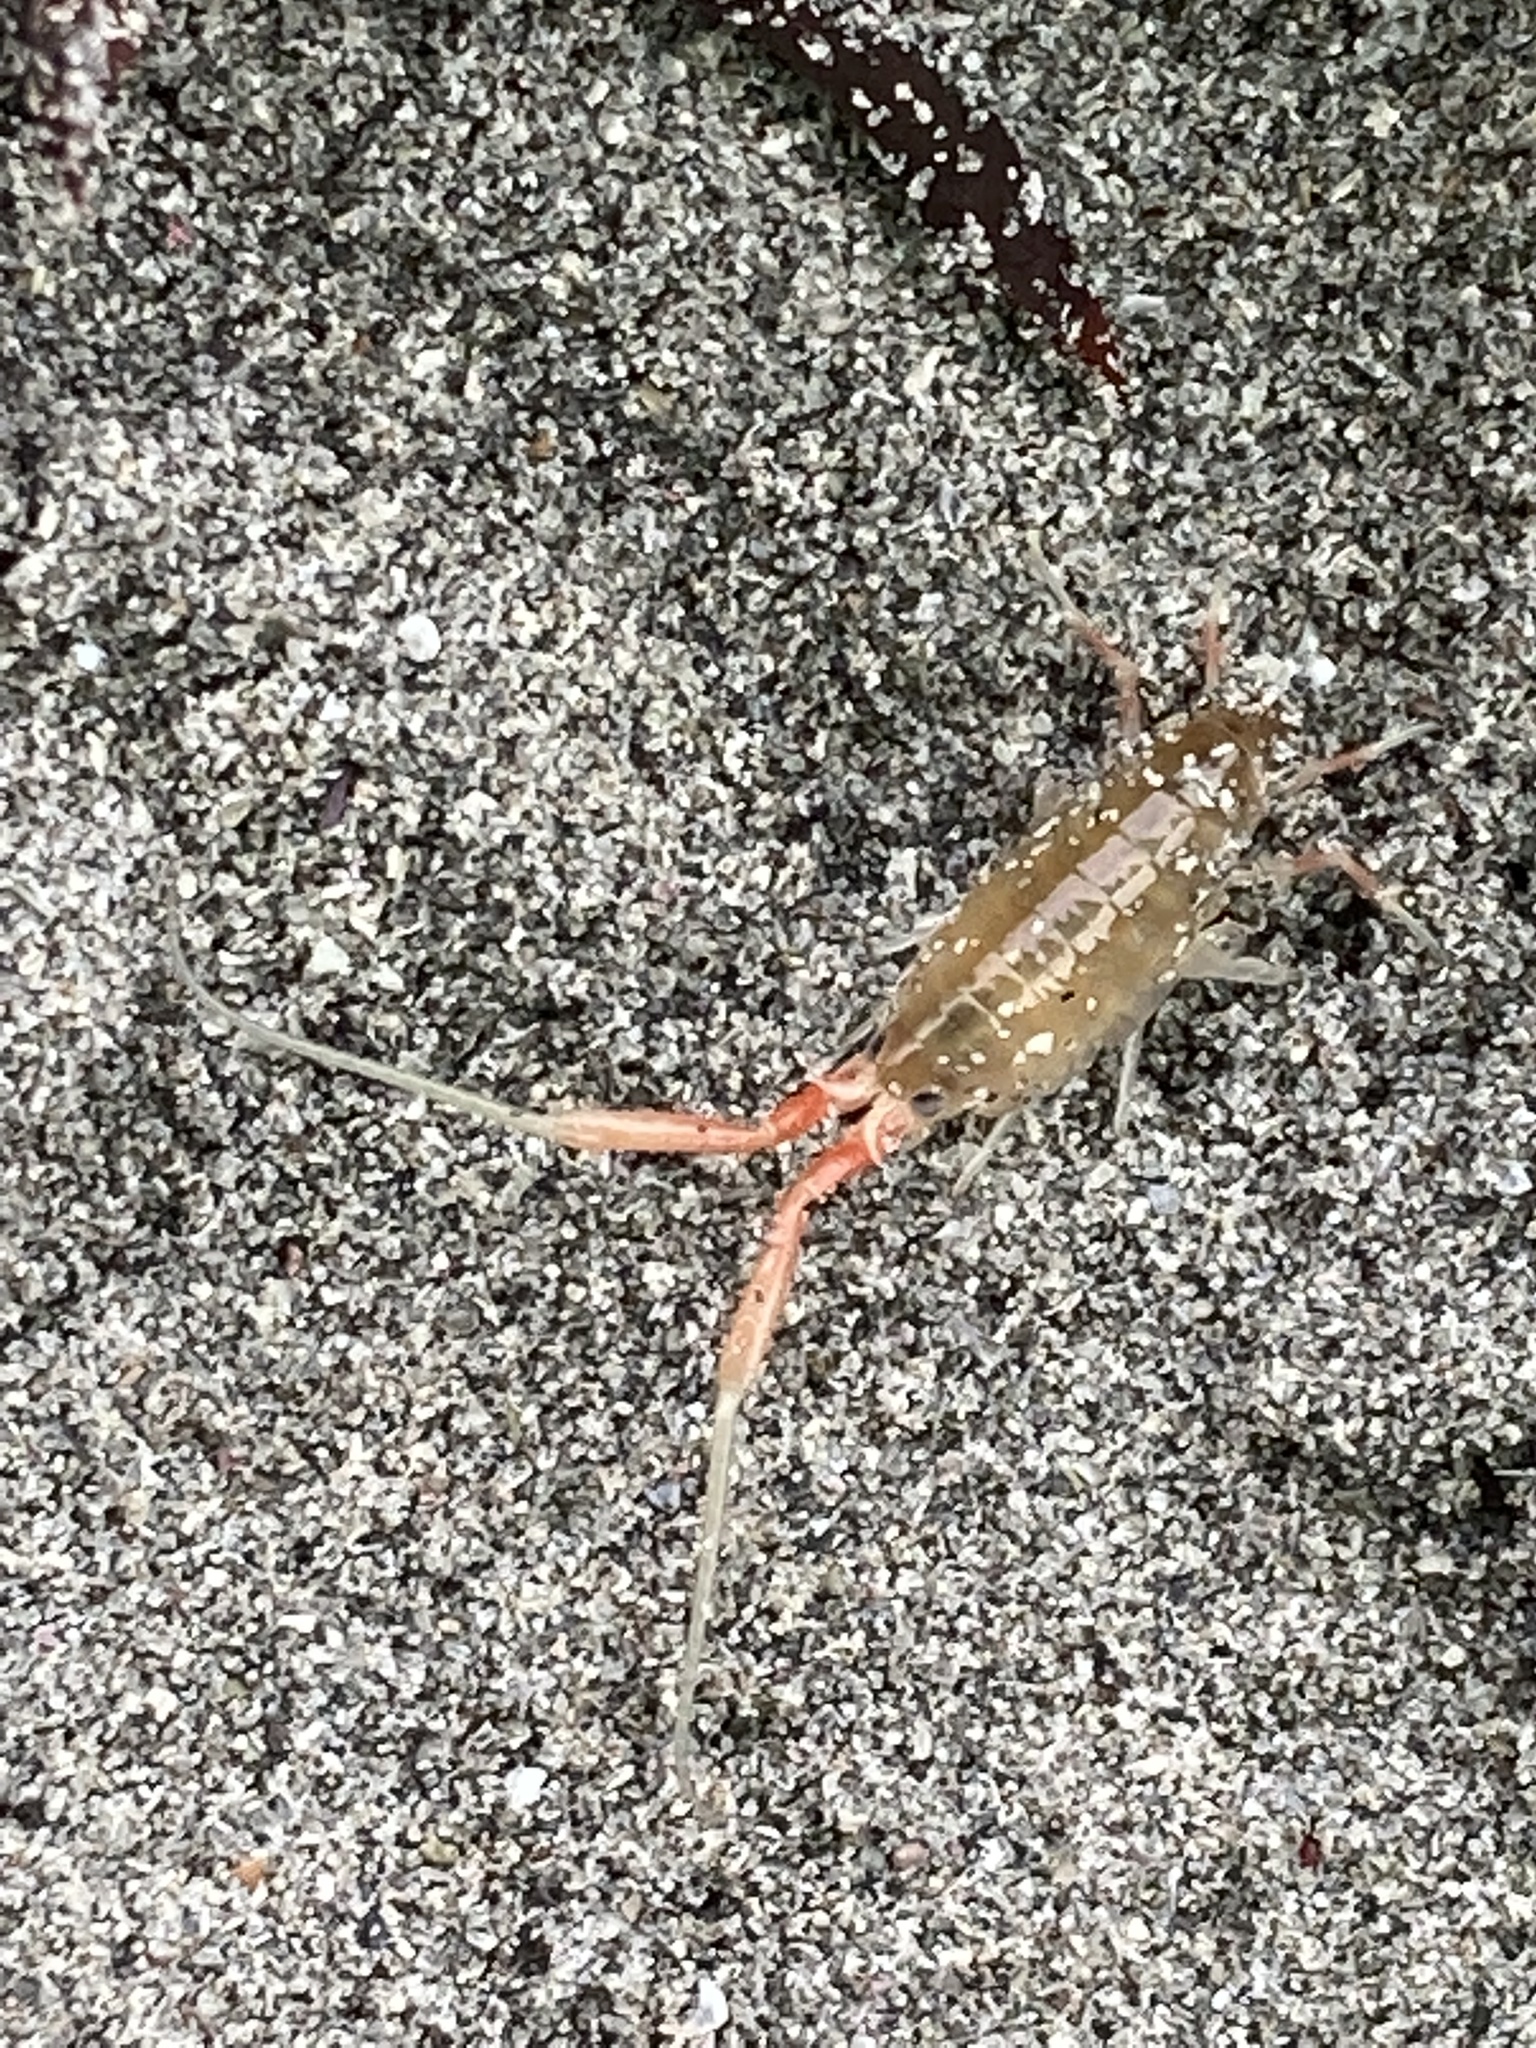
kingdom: Animalia
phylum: Arthropoda
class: Malacostraca
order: Amphipoda
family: Talitridae
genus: Megalorchestia
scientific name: Megalorchestia californiana
